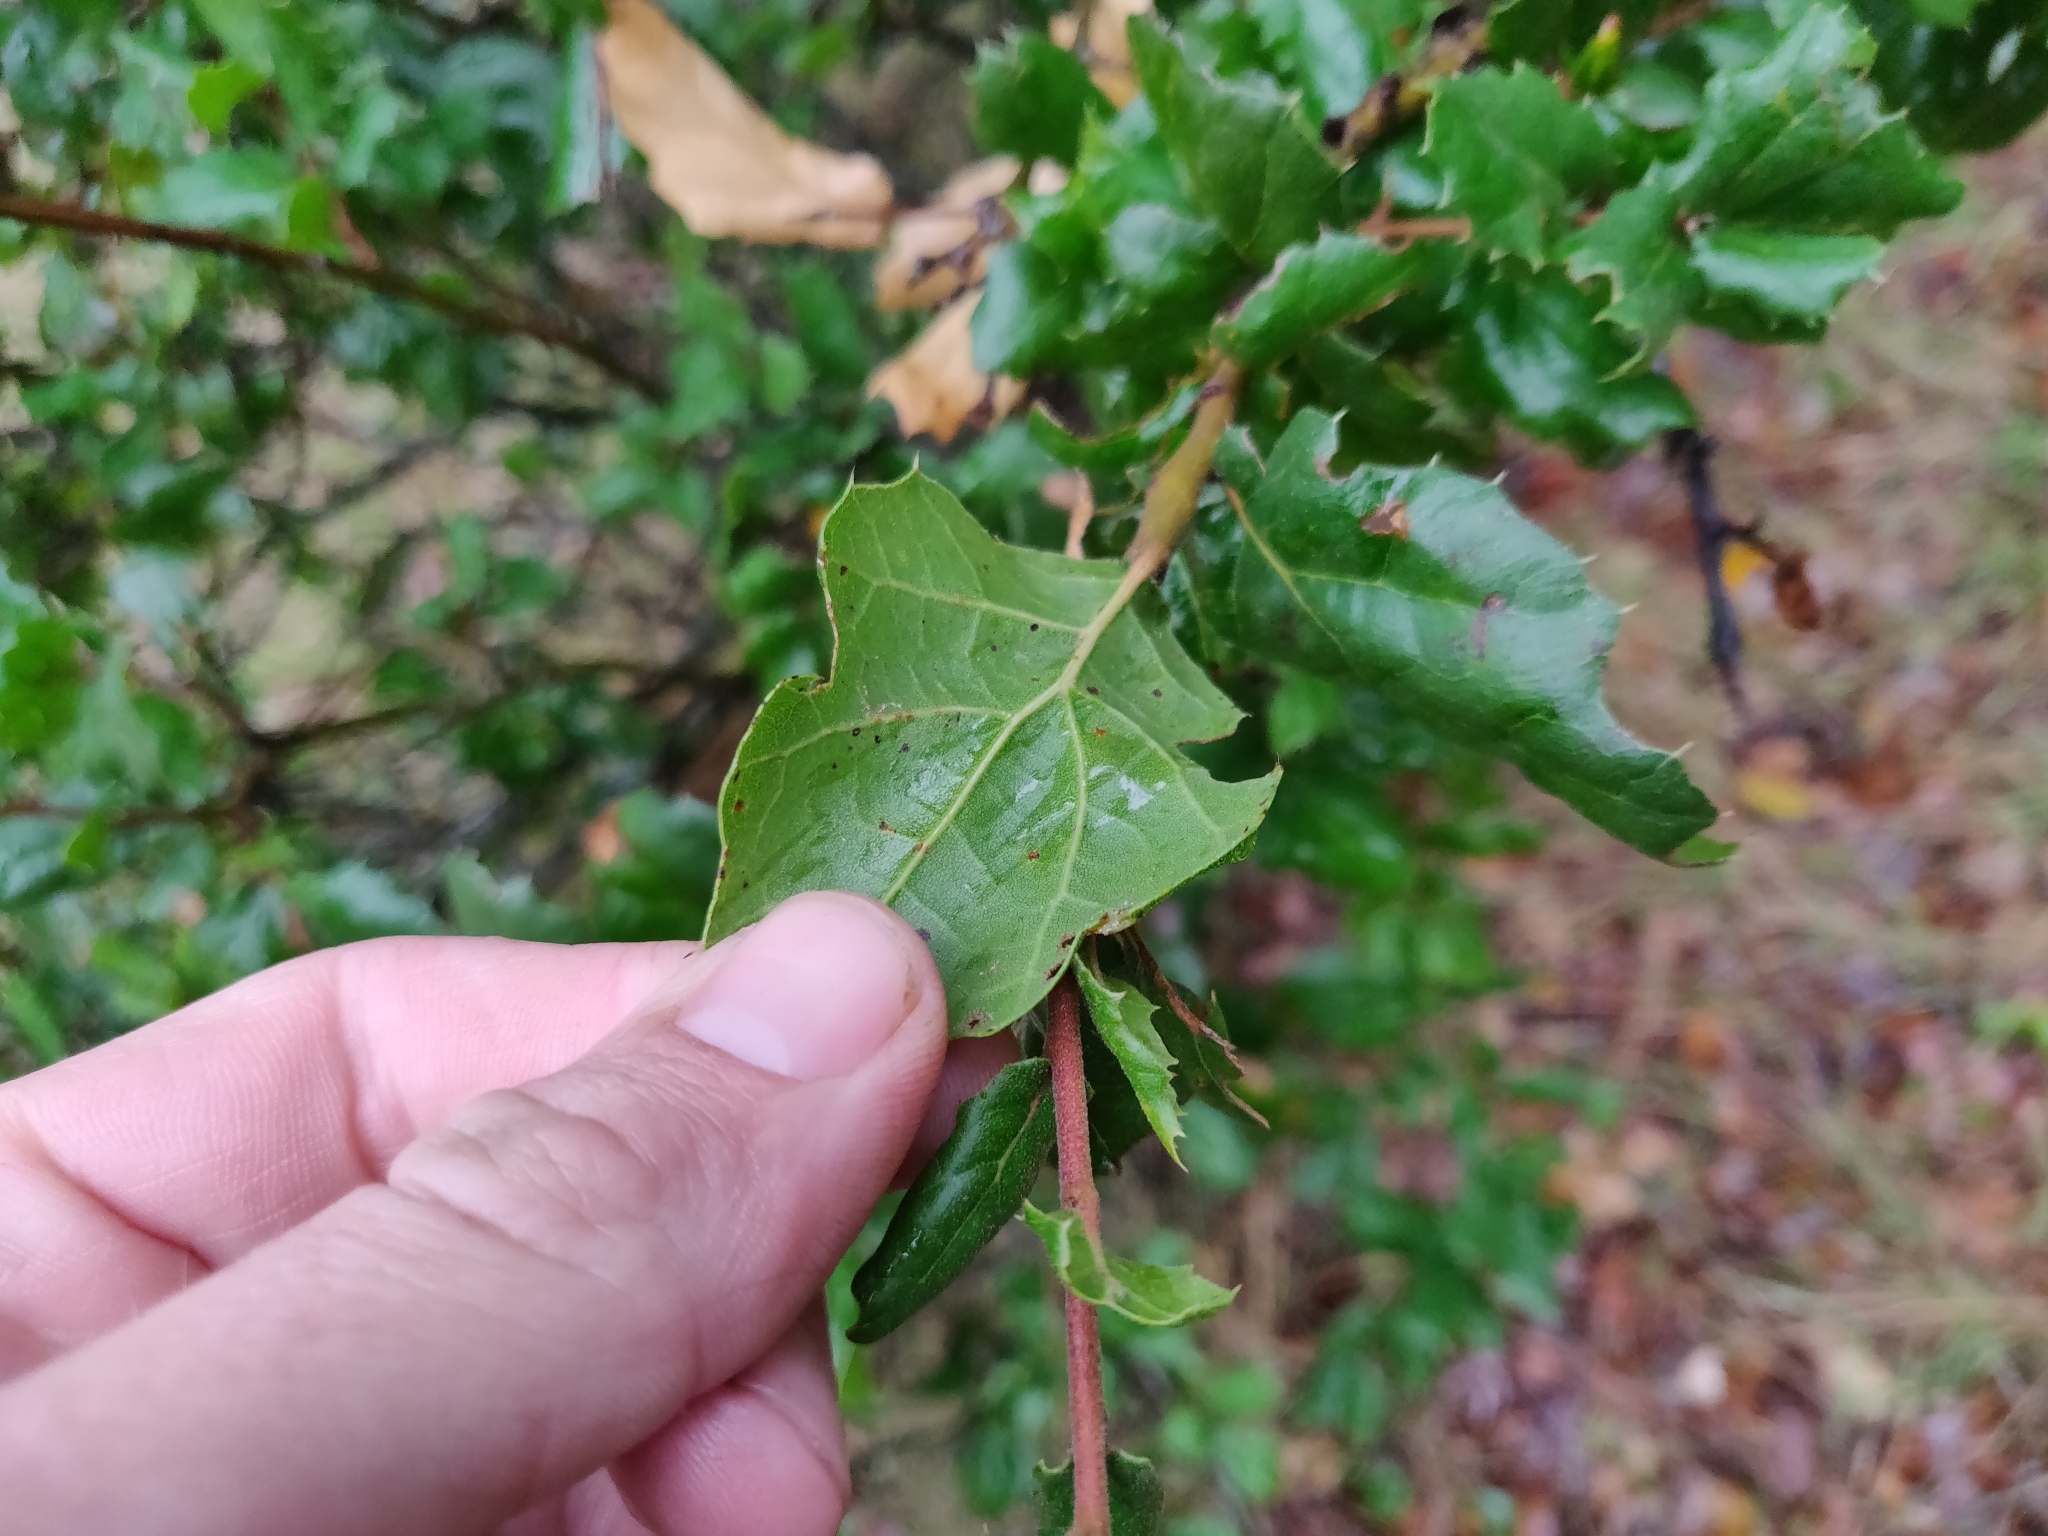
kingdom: Plantae
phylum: Tracheophyta
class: Magnoliopsida
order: Fagales
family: Fagaceae
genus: Quercus
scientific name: Quercus agrifolia
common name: California live oak
